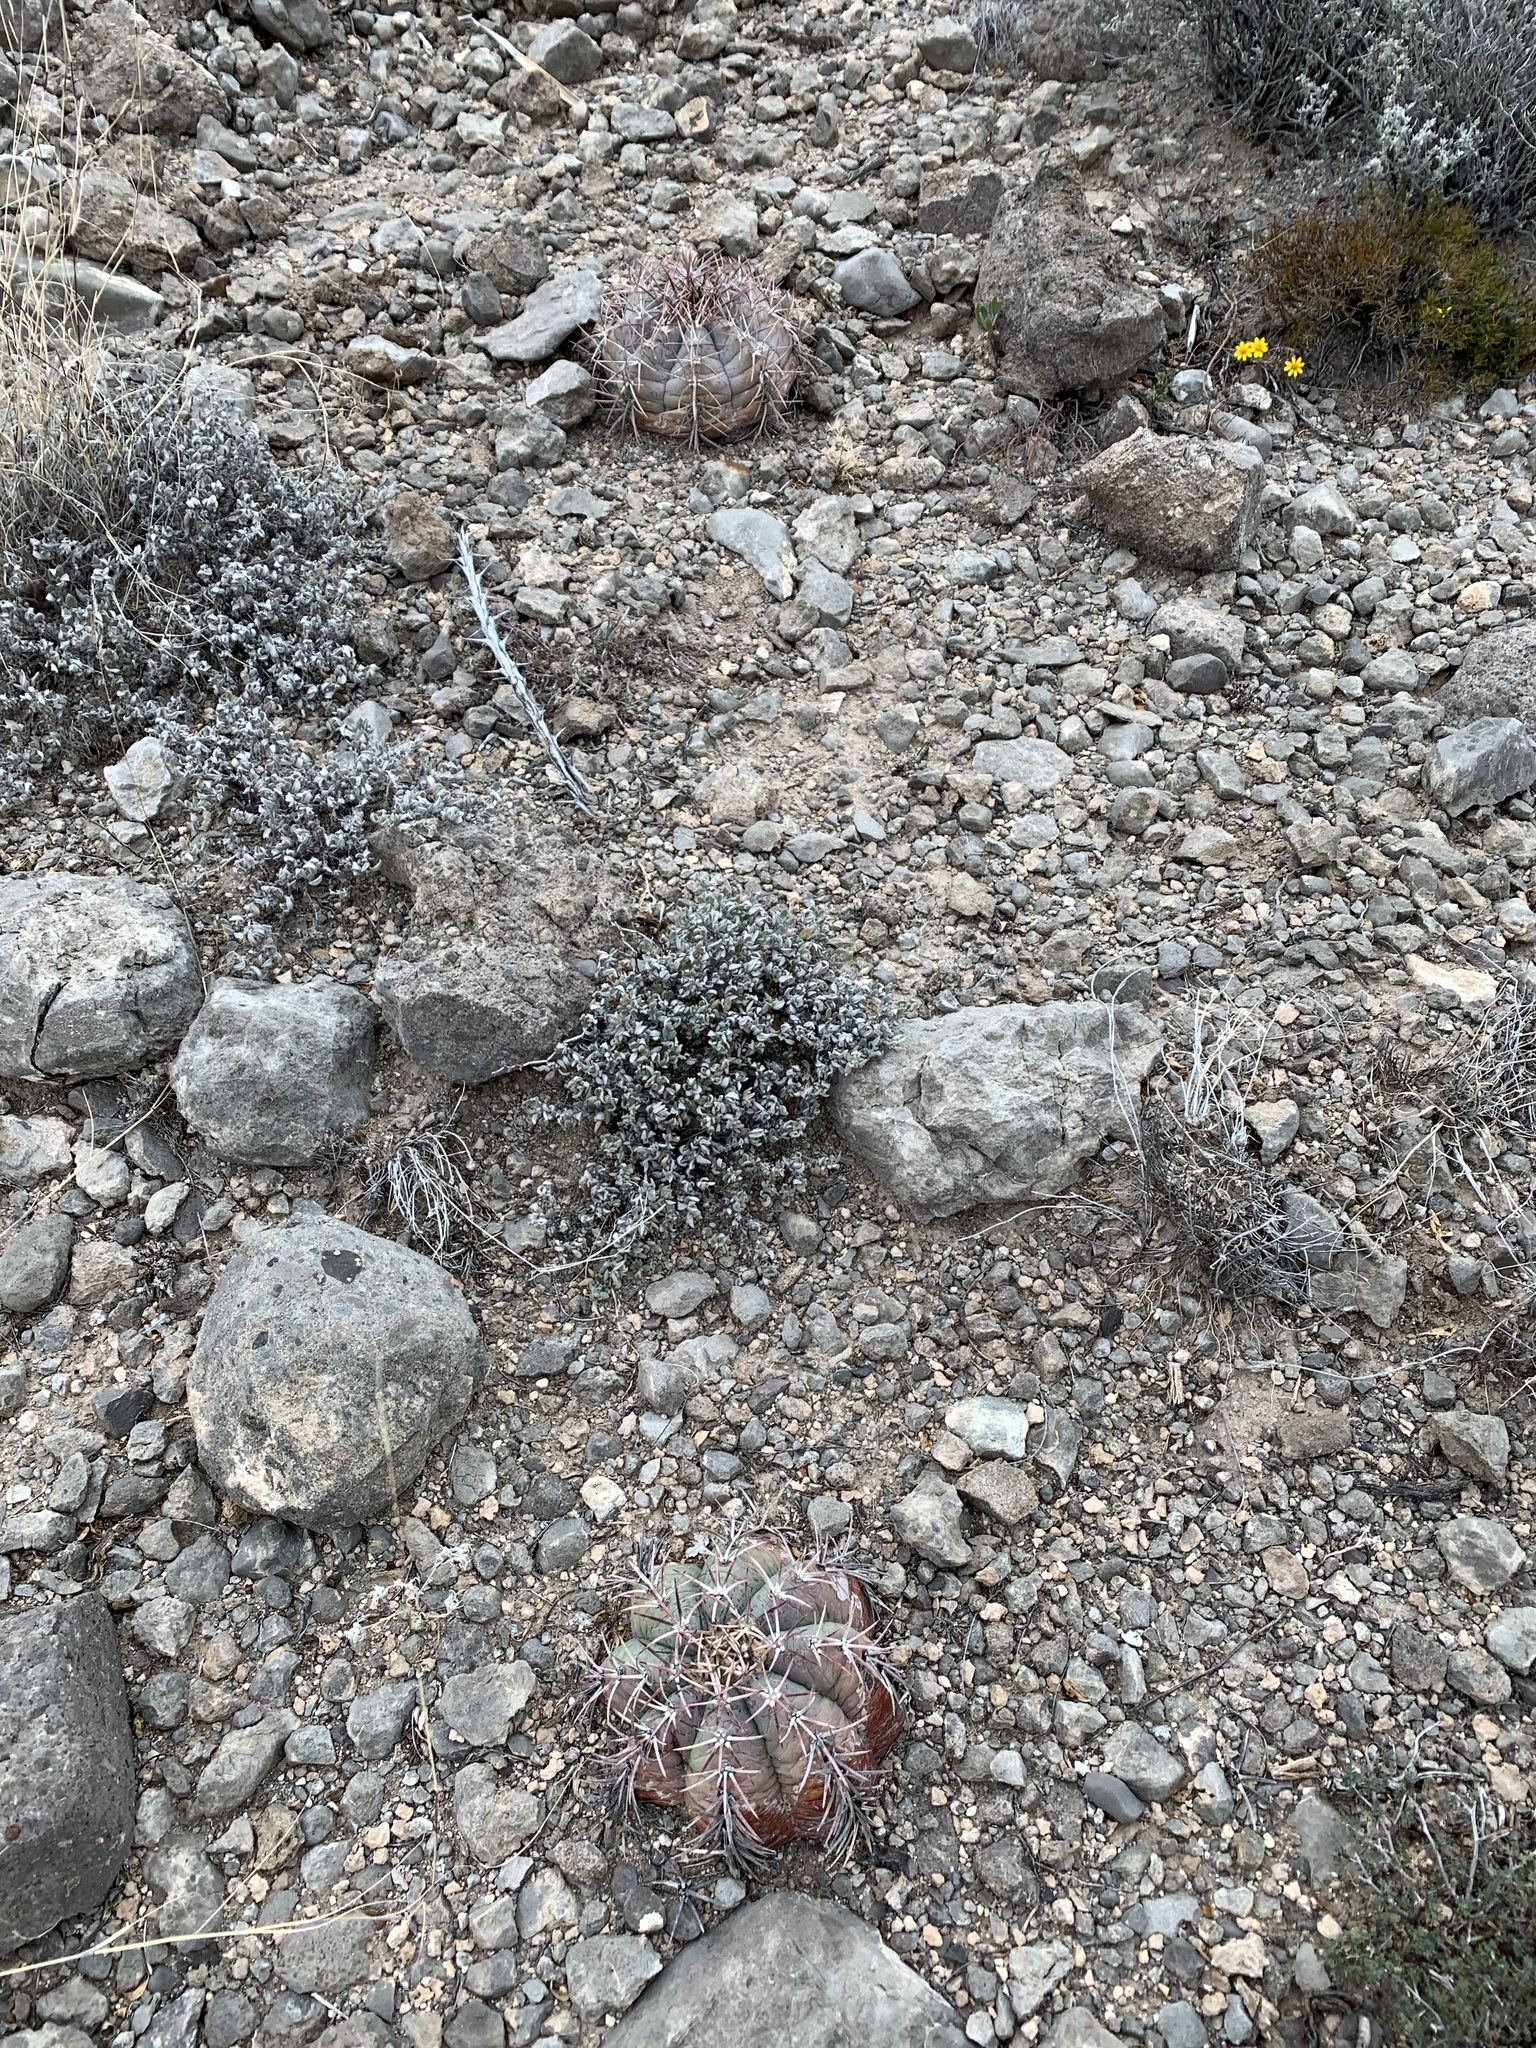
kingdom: Plantae
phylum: Tracheophyta
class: Magnoliopsida
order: Caryophyllales
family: Cactaceae
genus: Echinocactus
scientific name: Echinocactus horizonthalonius
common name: Devilshead
